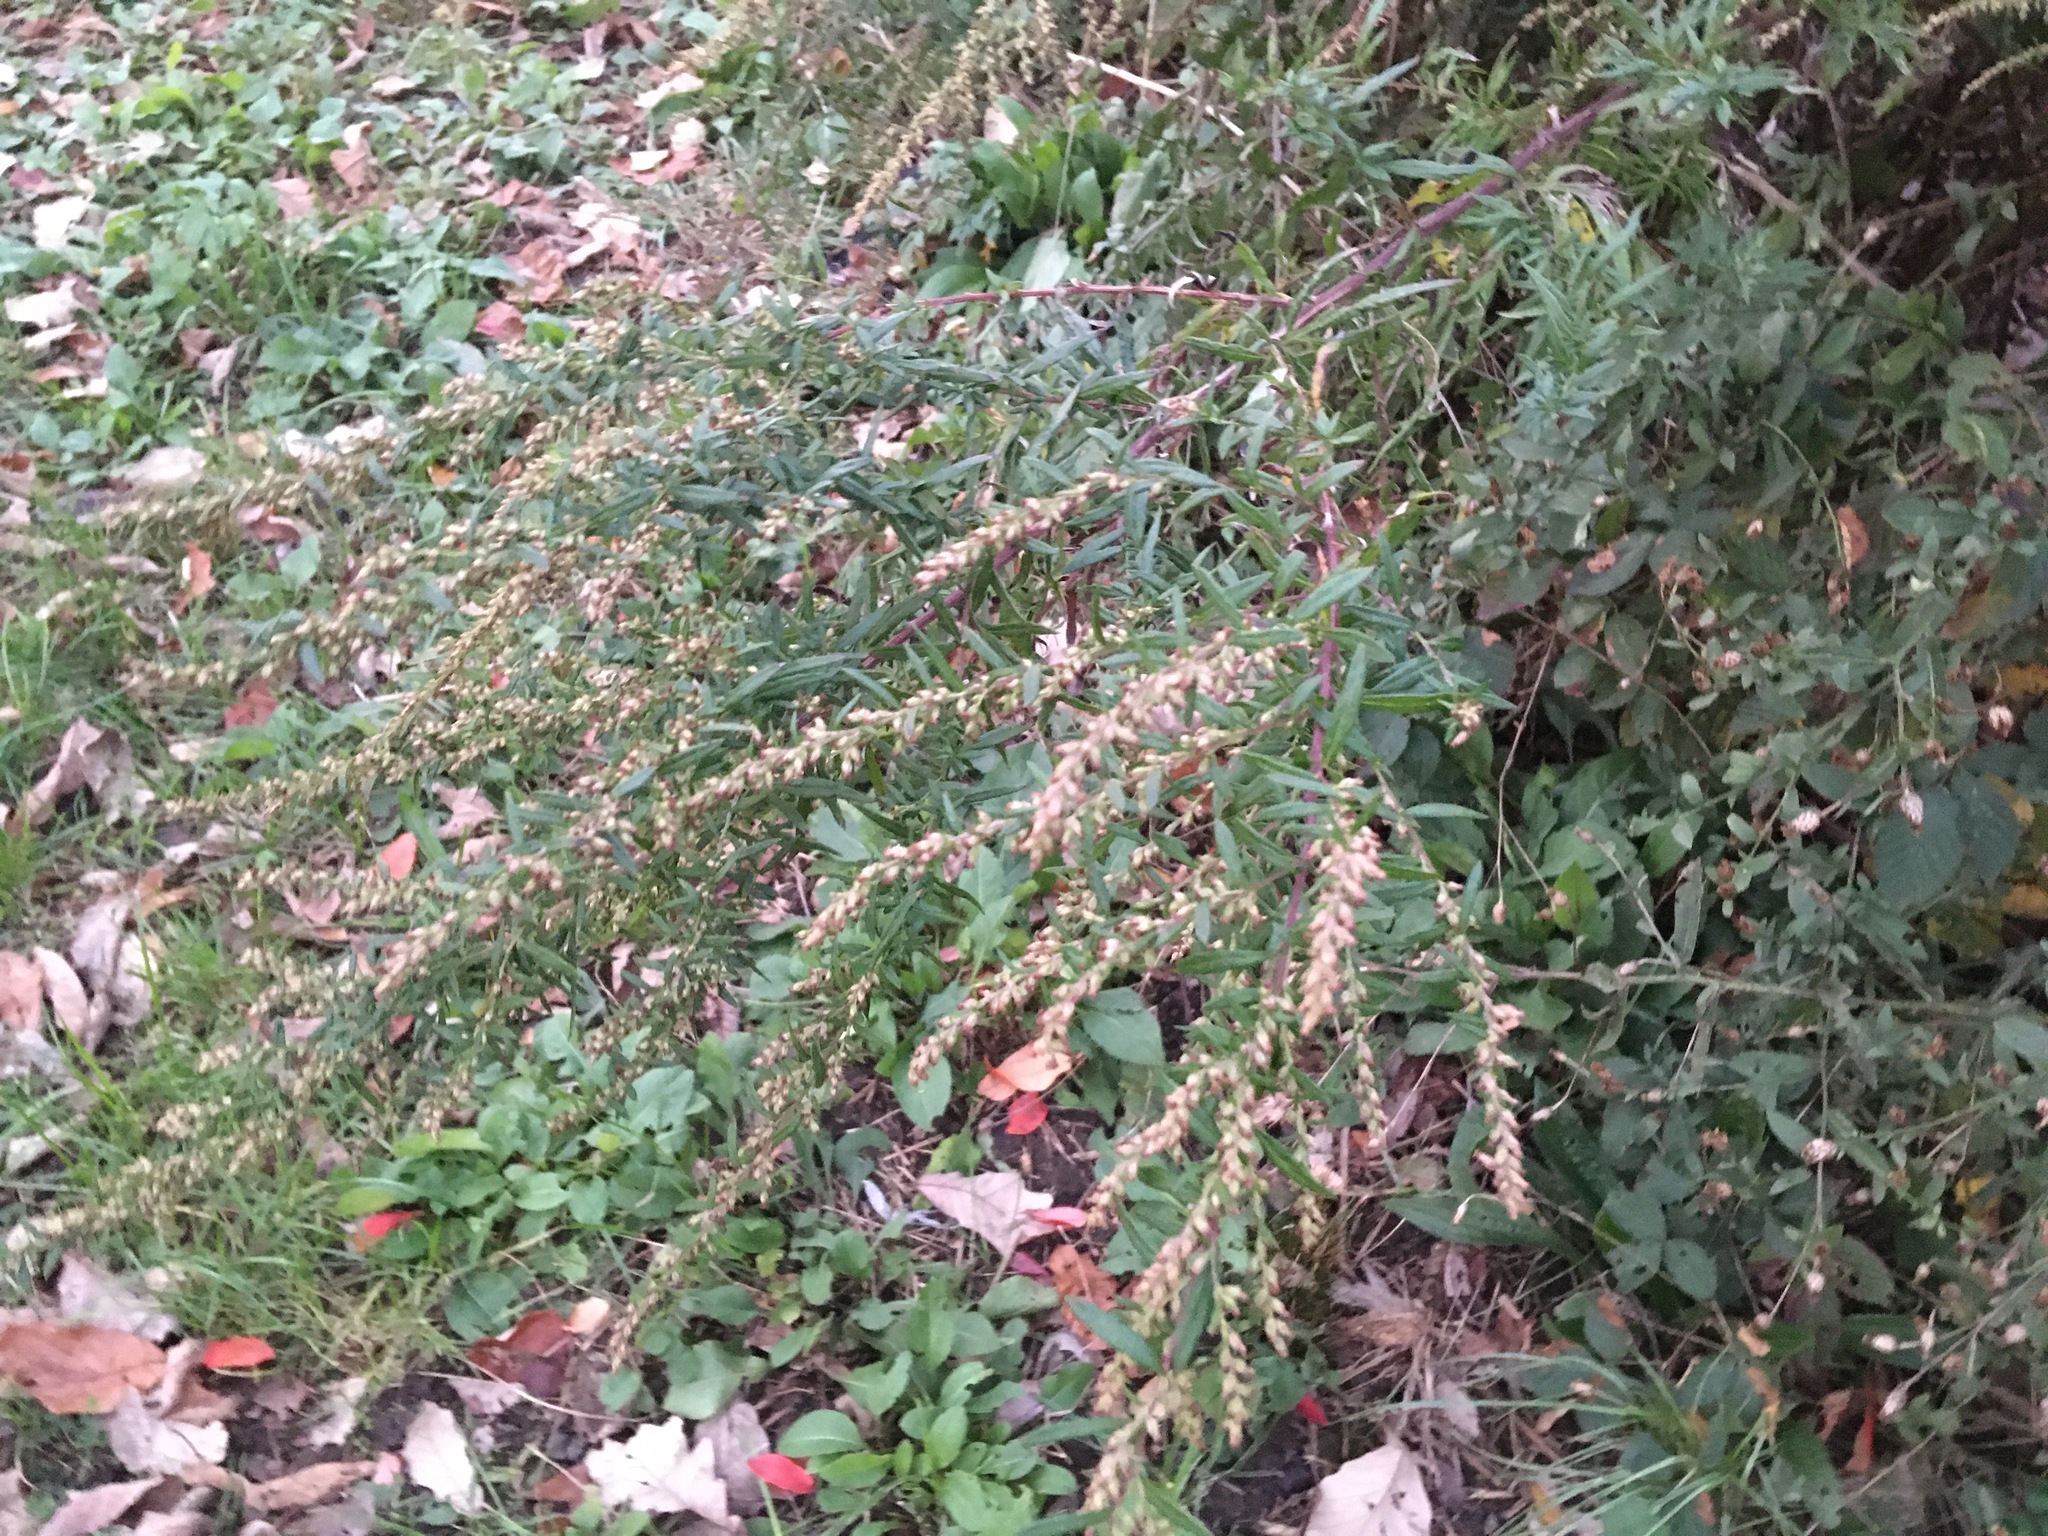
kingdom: Plantae
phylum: Tracheophyta
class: Magnoliopsida
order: Asterales
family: Asteraceae
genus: Artemisia
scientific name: Artemisia vulgaris
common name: Mugwort
